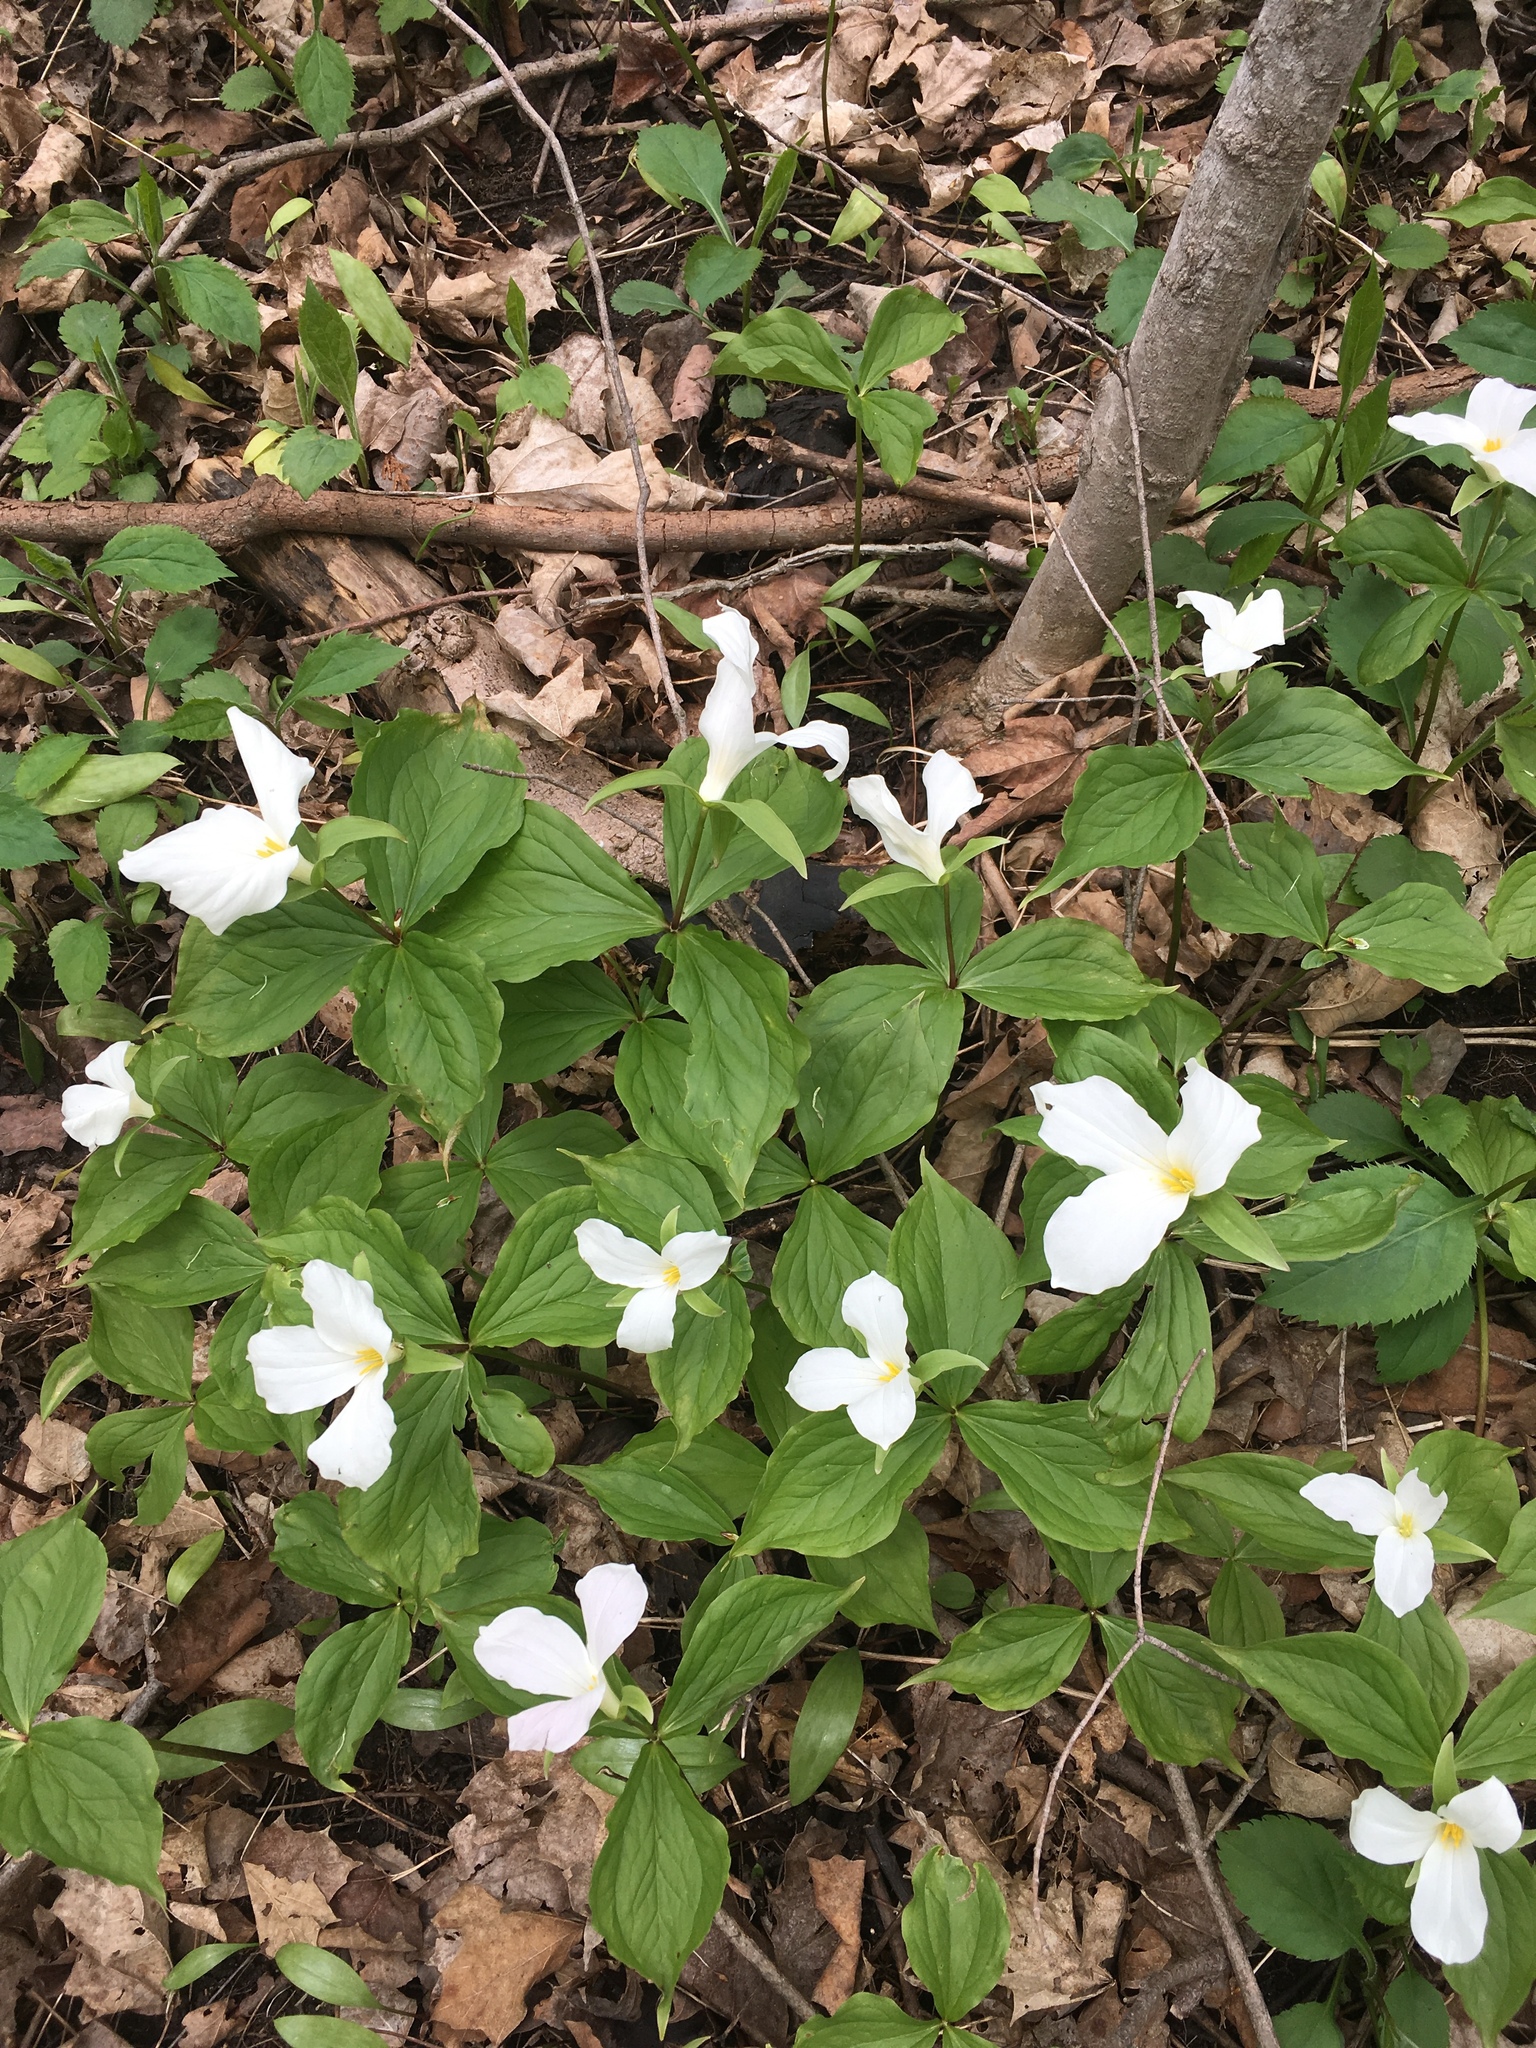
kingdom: Plantae
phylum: Tracheophyta
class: Liliopsida
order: Liliales
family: Melanthiaceae
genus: Trillium
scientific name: Trillium grandiflorum
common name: Great white trillium
